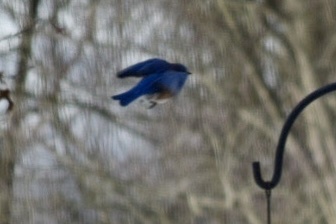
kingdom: Animalia
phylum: Chordata
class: Aves
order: Passeriformes
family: Turdidae
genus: Sialia
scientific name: Sialia sialis
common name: Eastern bluebird
